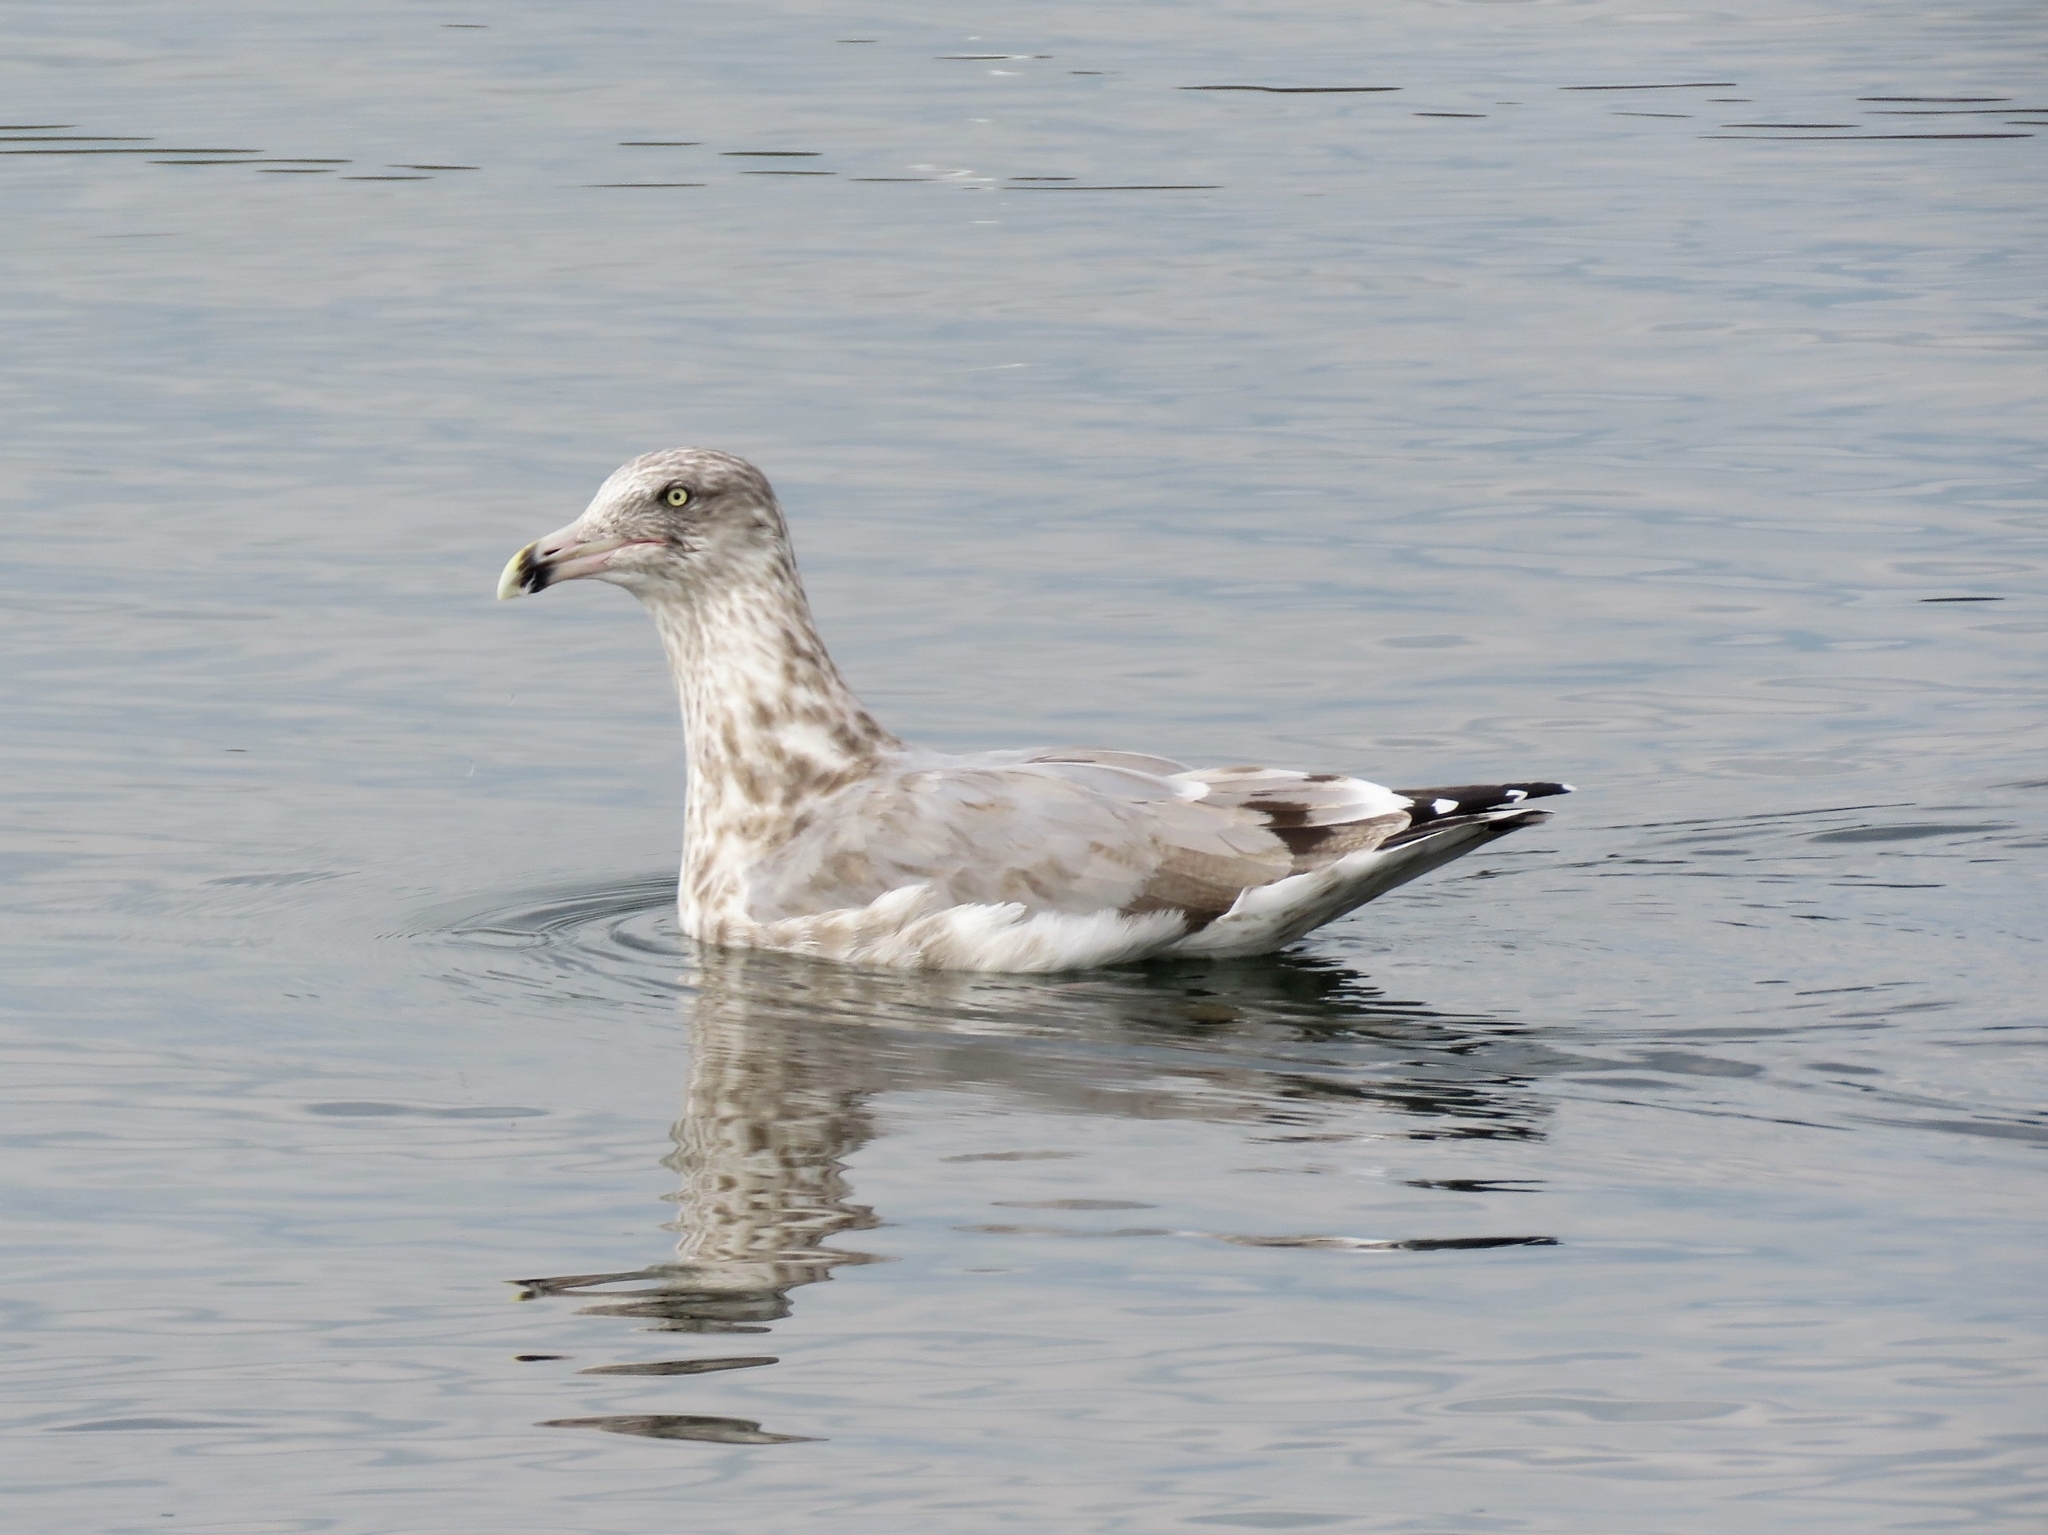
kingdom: Animalia
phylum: Chordata
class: Aves
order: Charadriiformes
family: Laridae
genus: Larus
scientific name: Larus argentatus
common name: Herring gull
